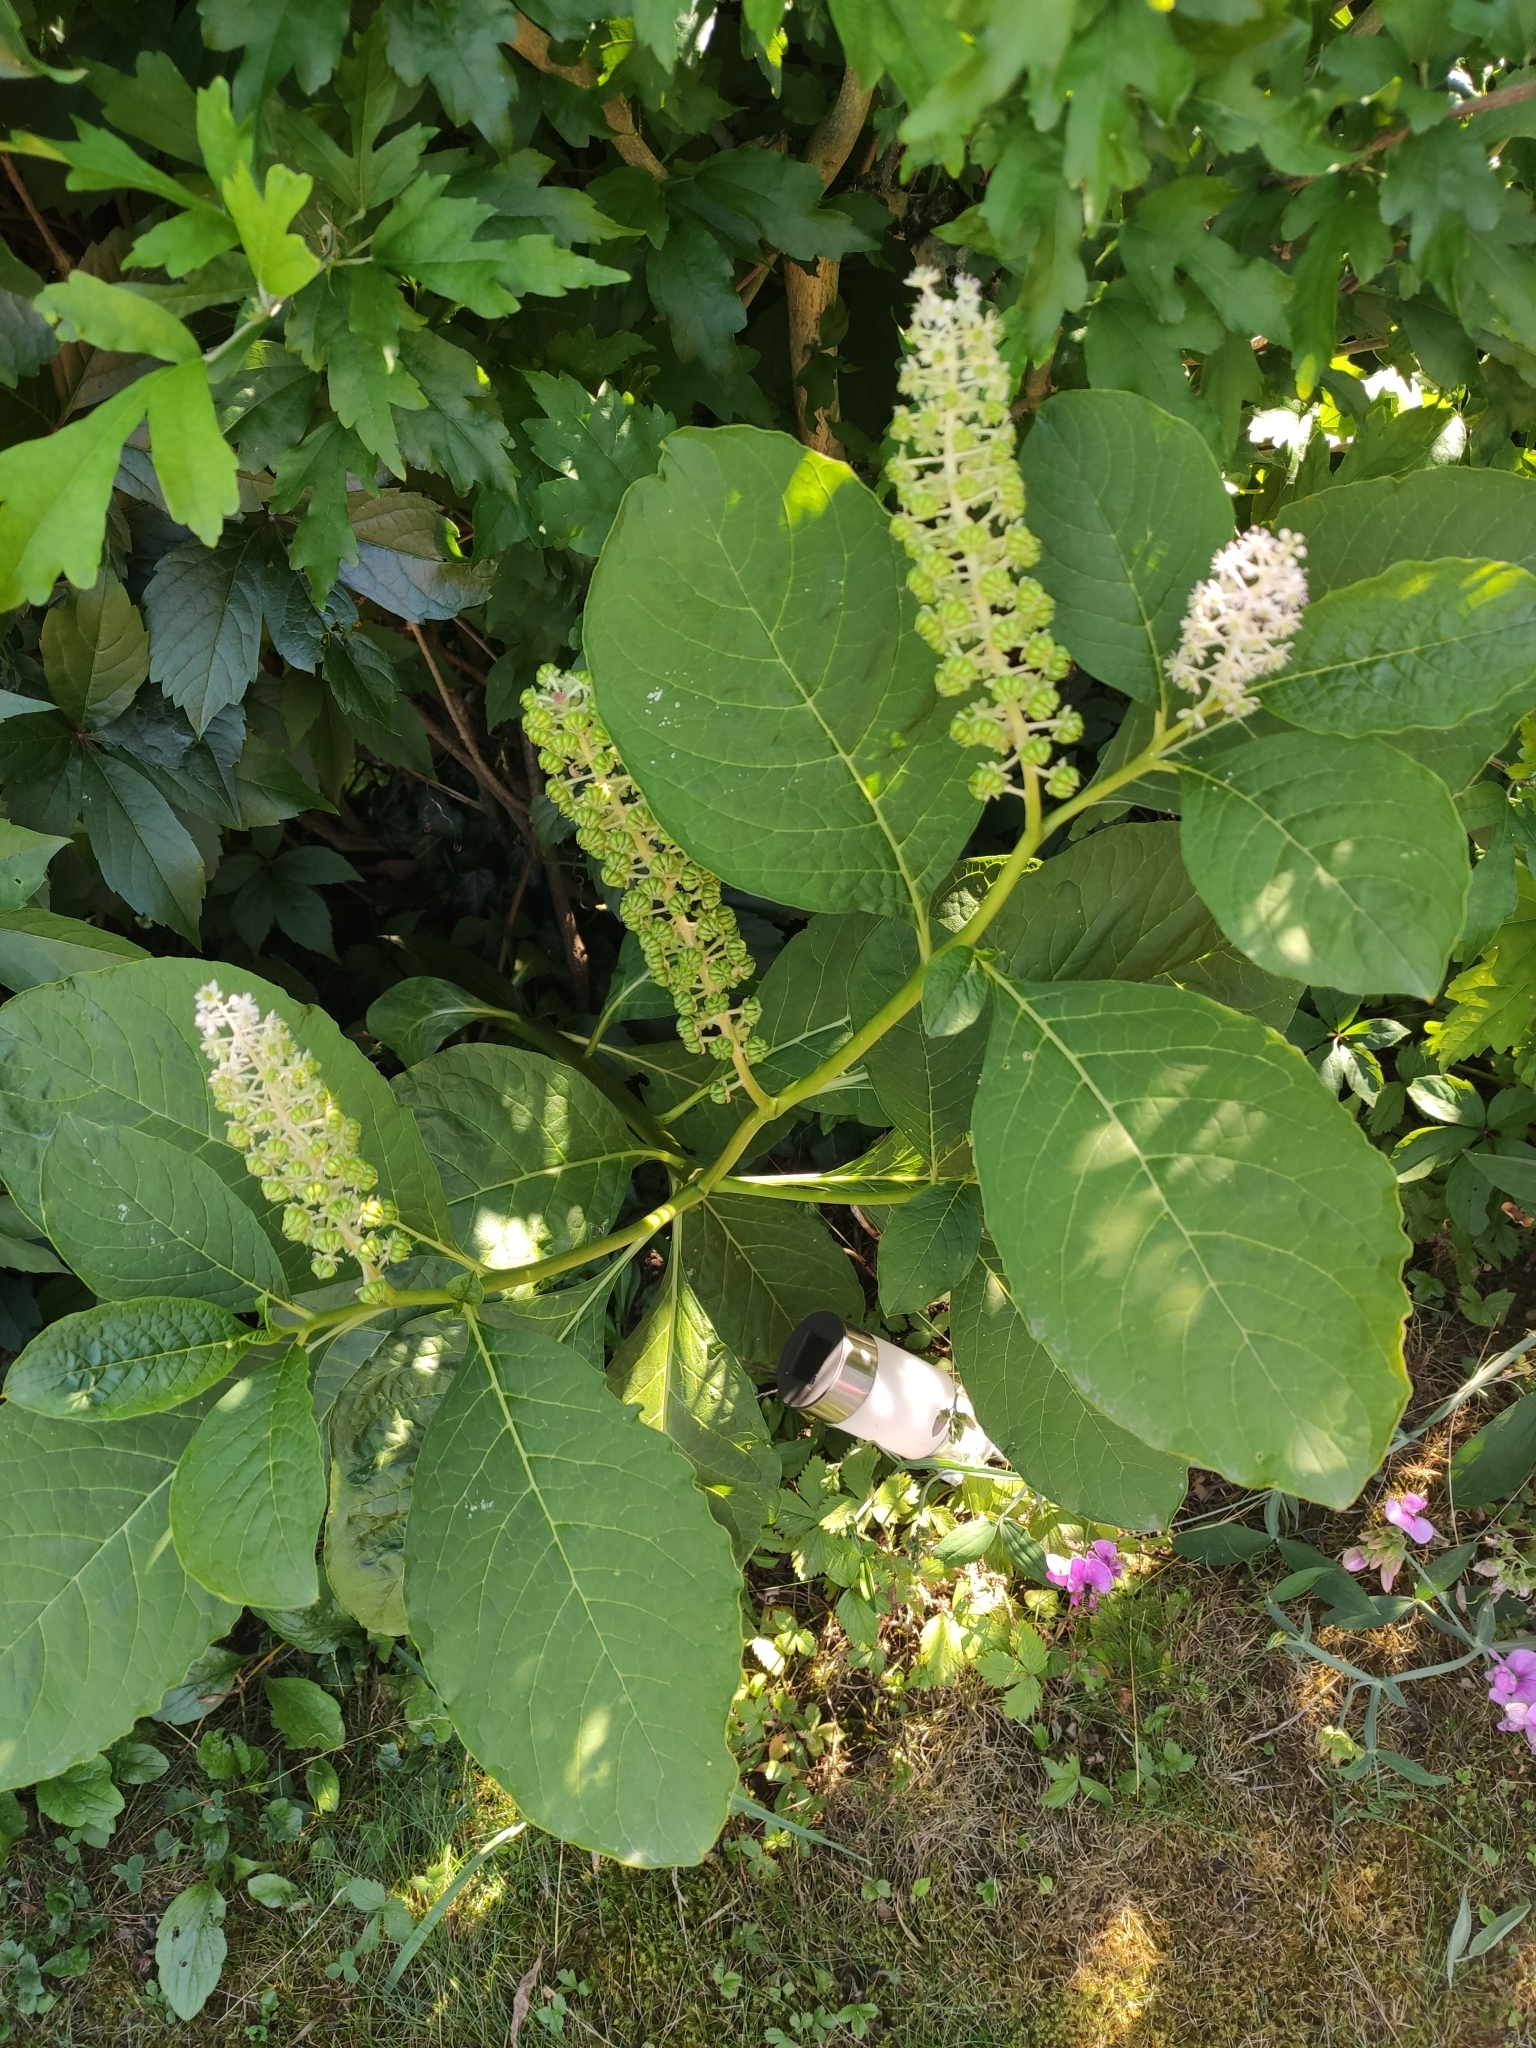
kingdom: Plantae
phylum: Tracheophyta
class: Magnoliopsida
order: Caryophyllales
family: Phytolaccaceae
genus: Phytolacca
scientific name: Phytolacca acinosa
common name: Indian pokeweed
